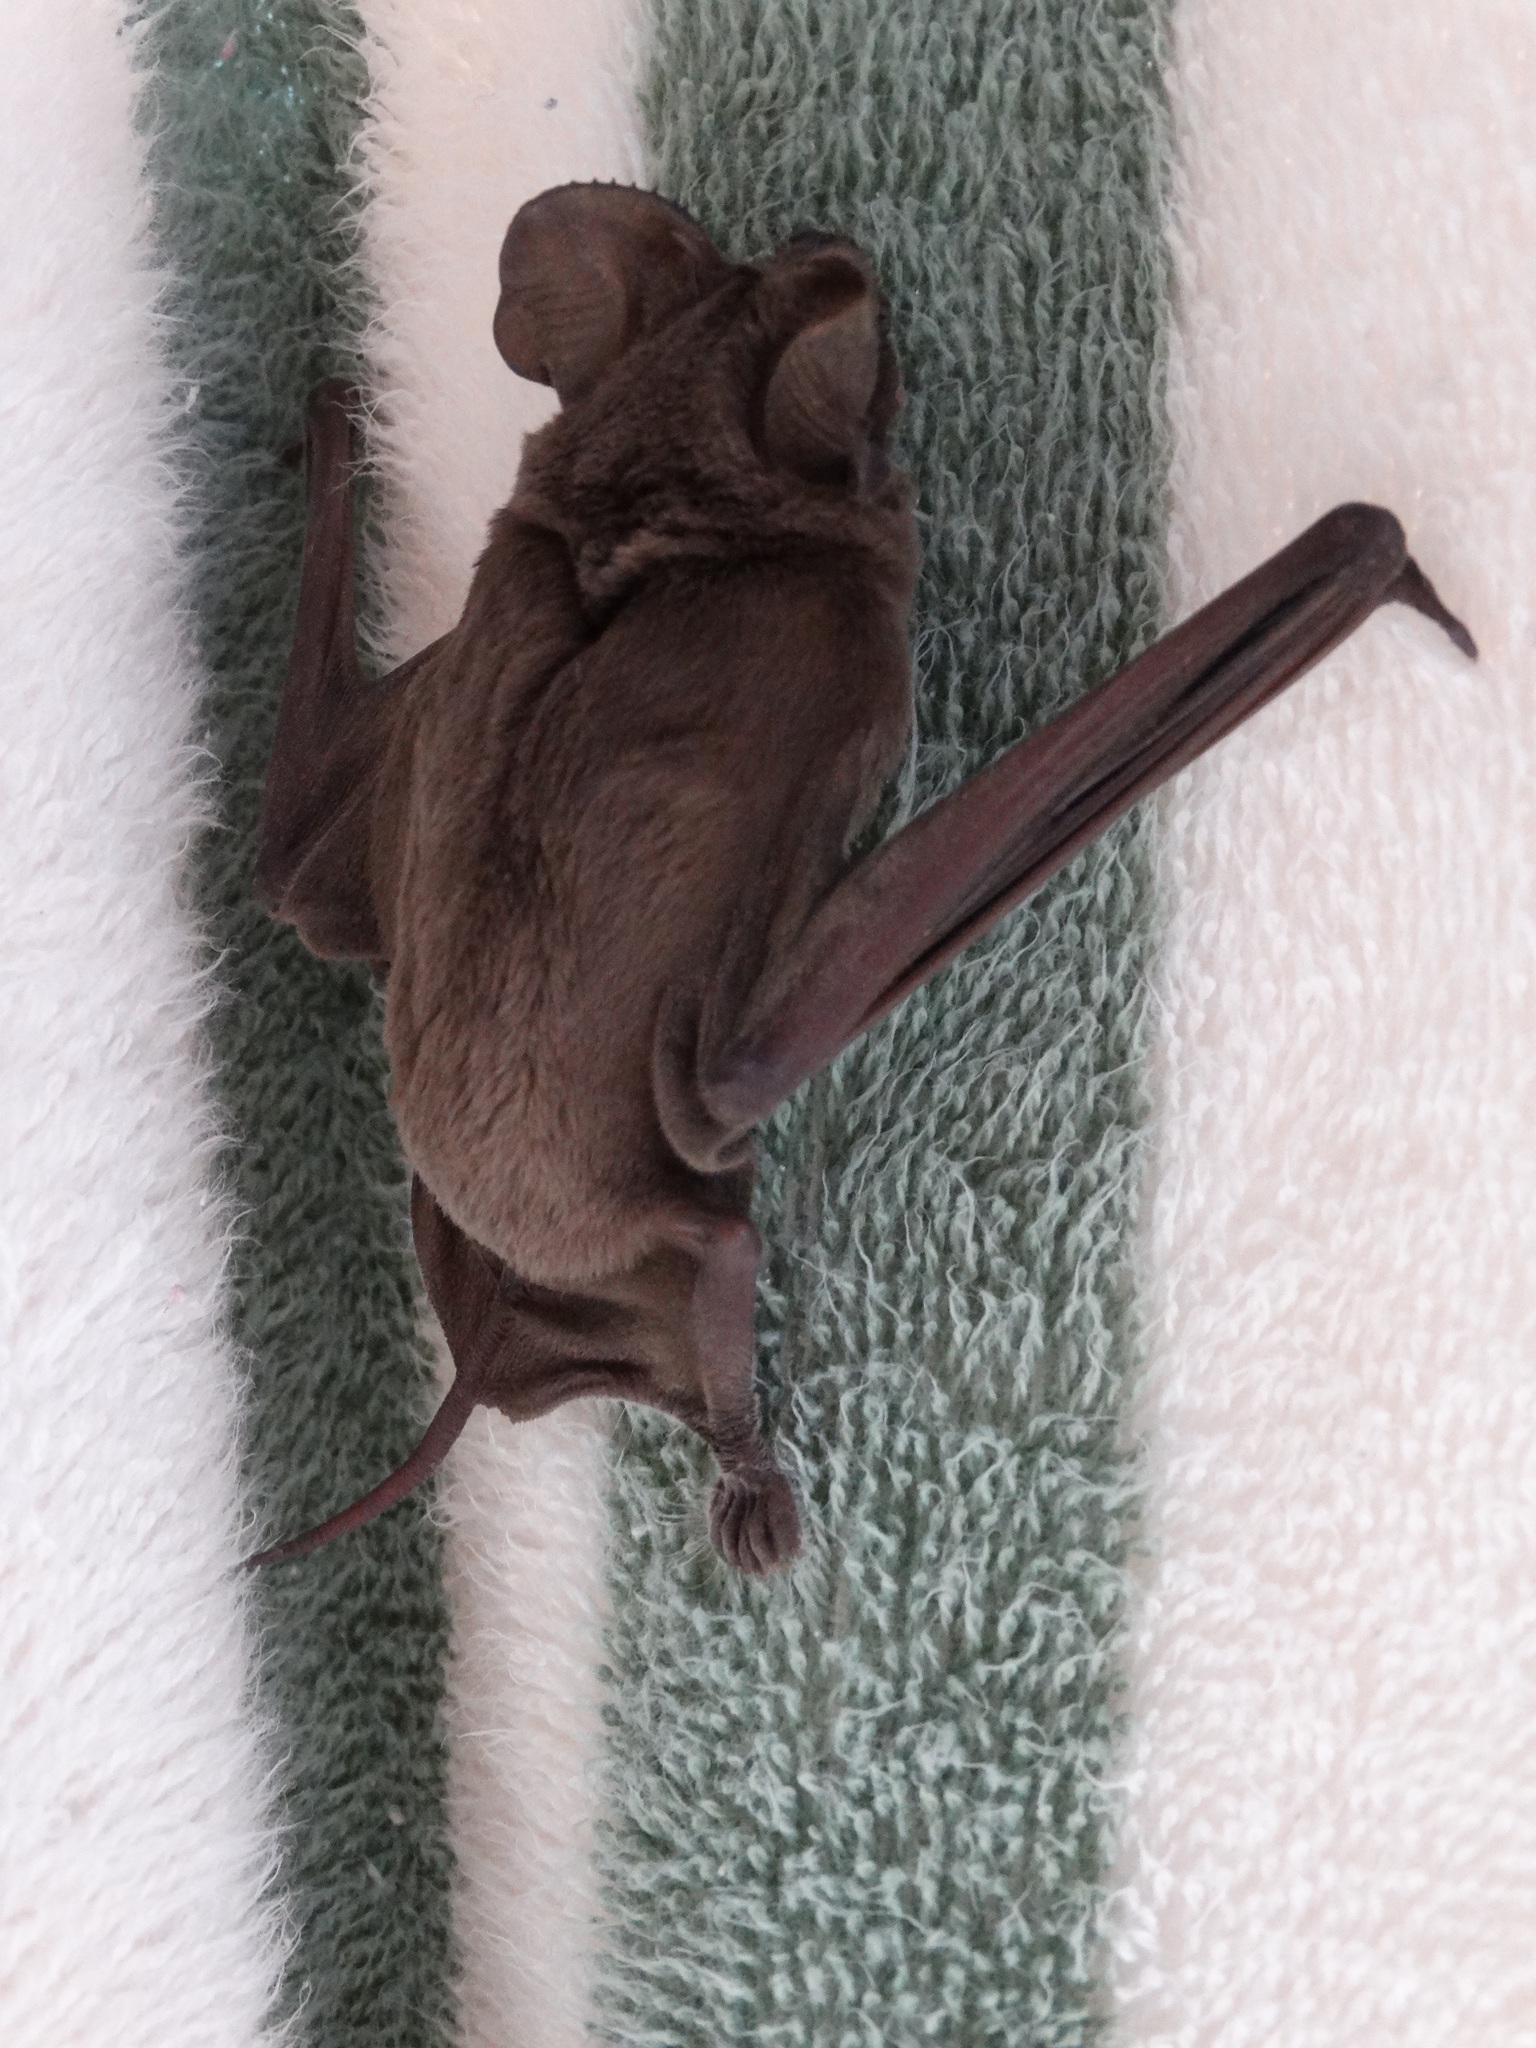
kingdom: Animalia
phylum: Chordata
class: Mammalia
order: Chiroptera
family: Molossidae
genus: Tadarida
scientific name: Tadarida brasiliensis
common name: Mexican free-tailed bat
